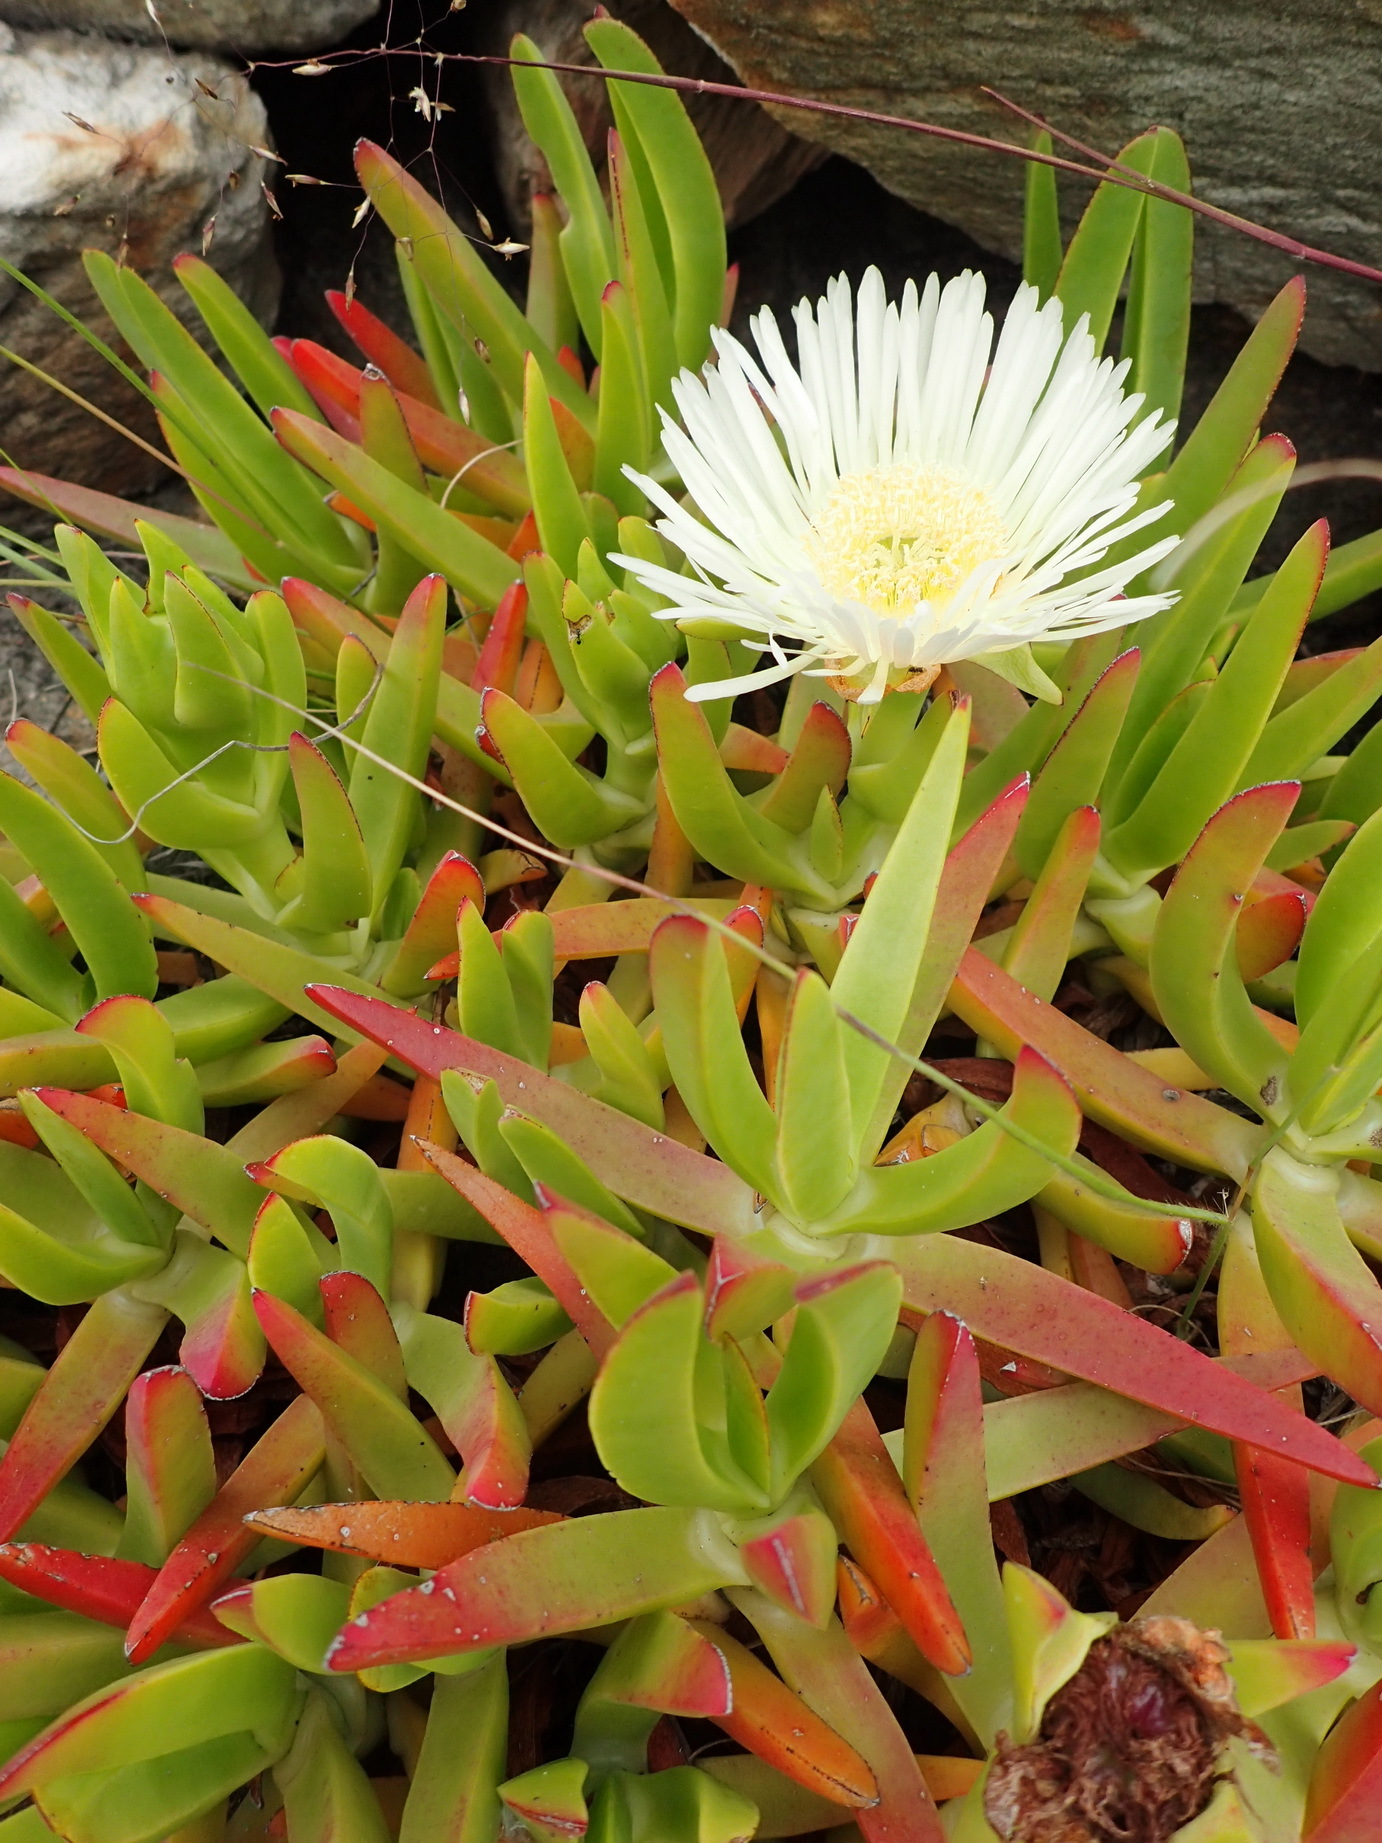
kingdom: Plantae
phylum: Tracheophyta
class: Magnoliopsida
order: Caryophyllales
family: Aizoaceae
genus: Carpobrotus
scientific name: Carpobrotus edulis
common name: Hottentot-fig
